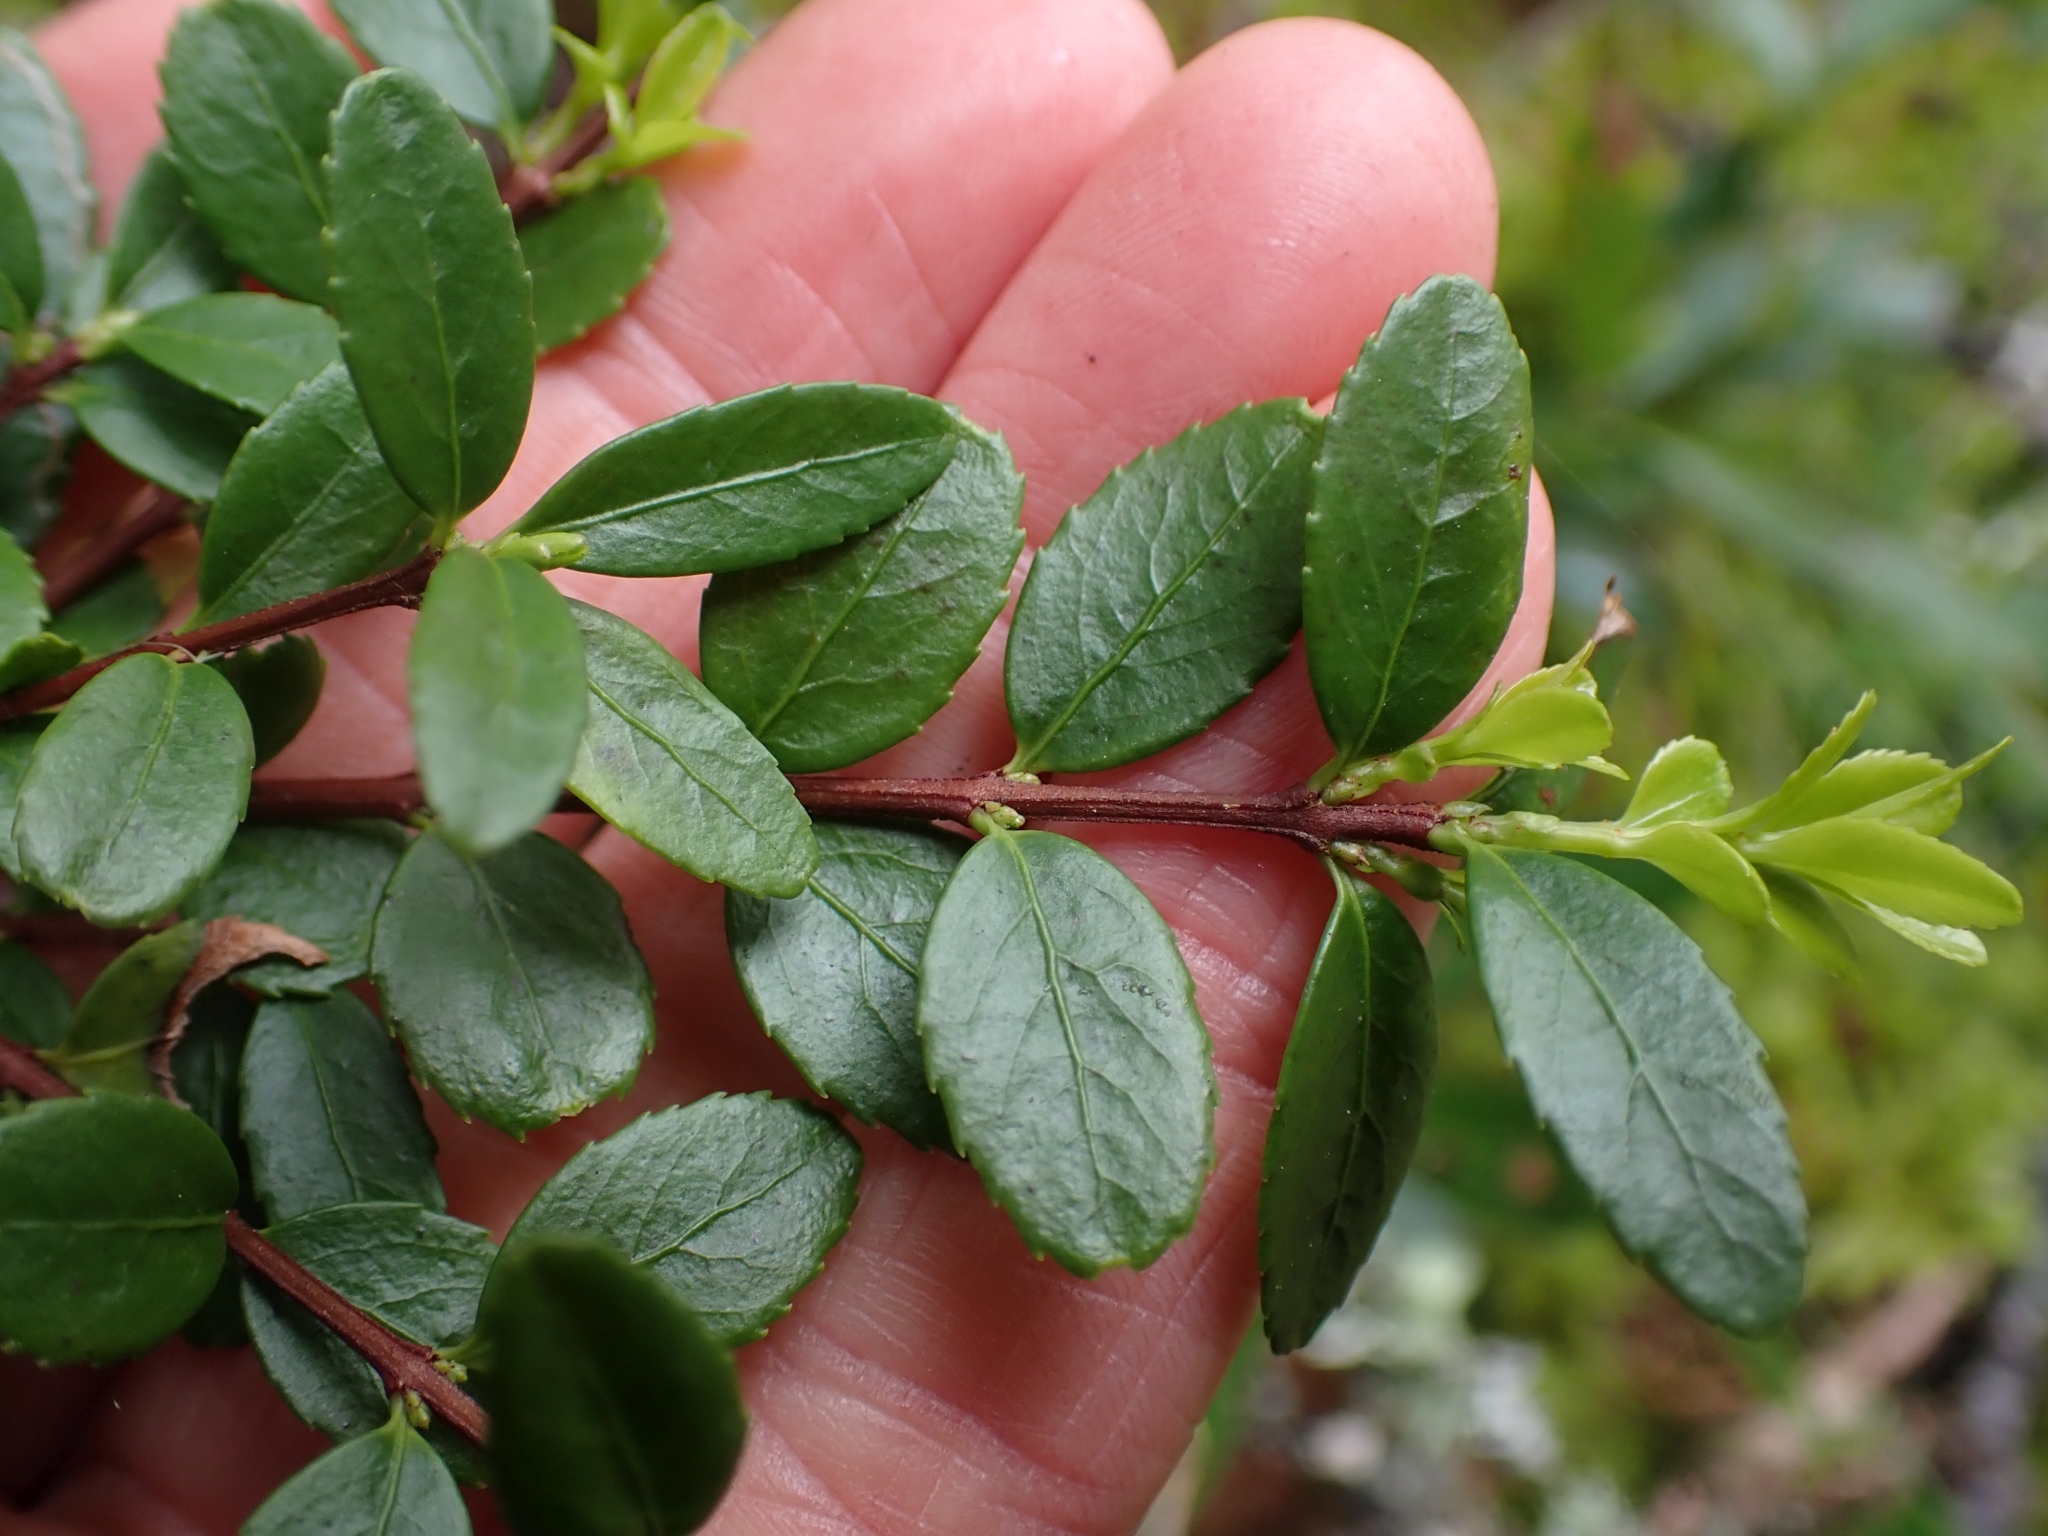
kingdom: Plantae
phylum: Tracheophyta
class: Magnoliopsida
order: Celastrales
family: Celastraceae
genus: Paxistima
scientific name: Paxistima myrsinites
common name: Mountain-lover
